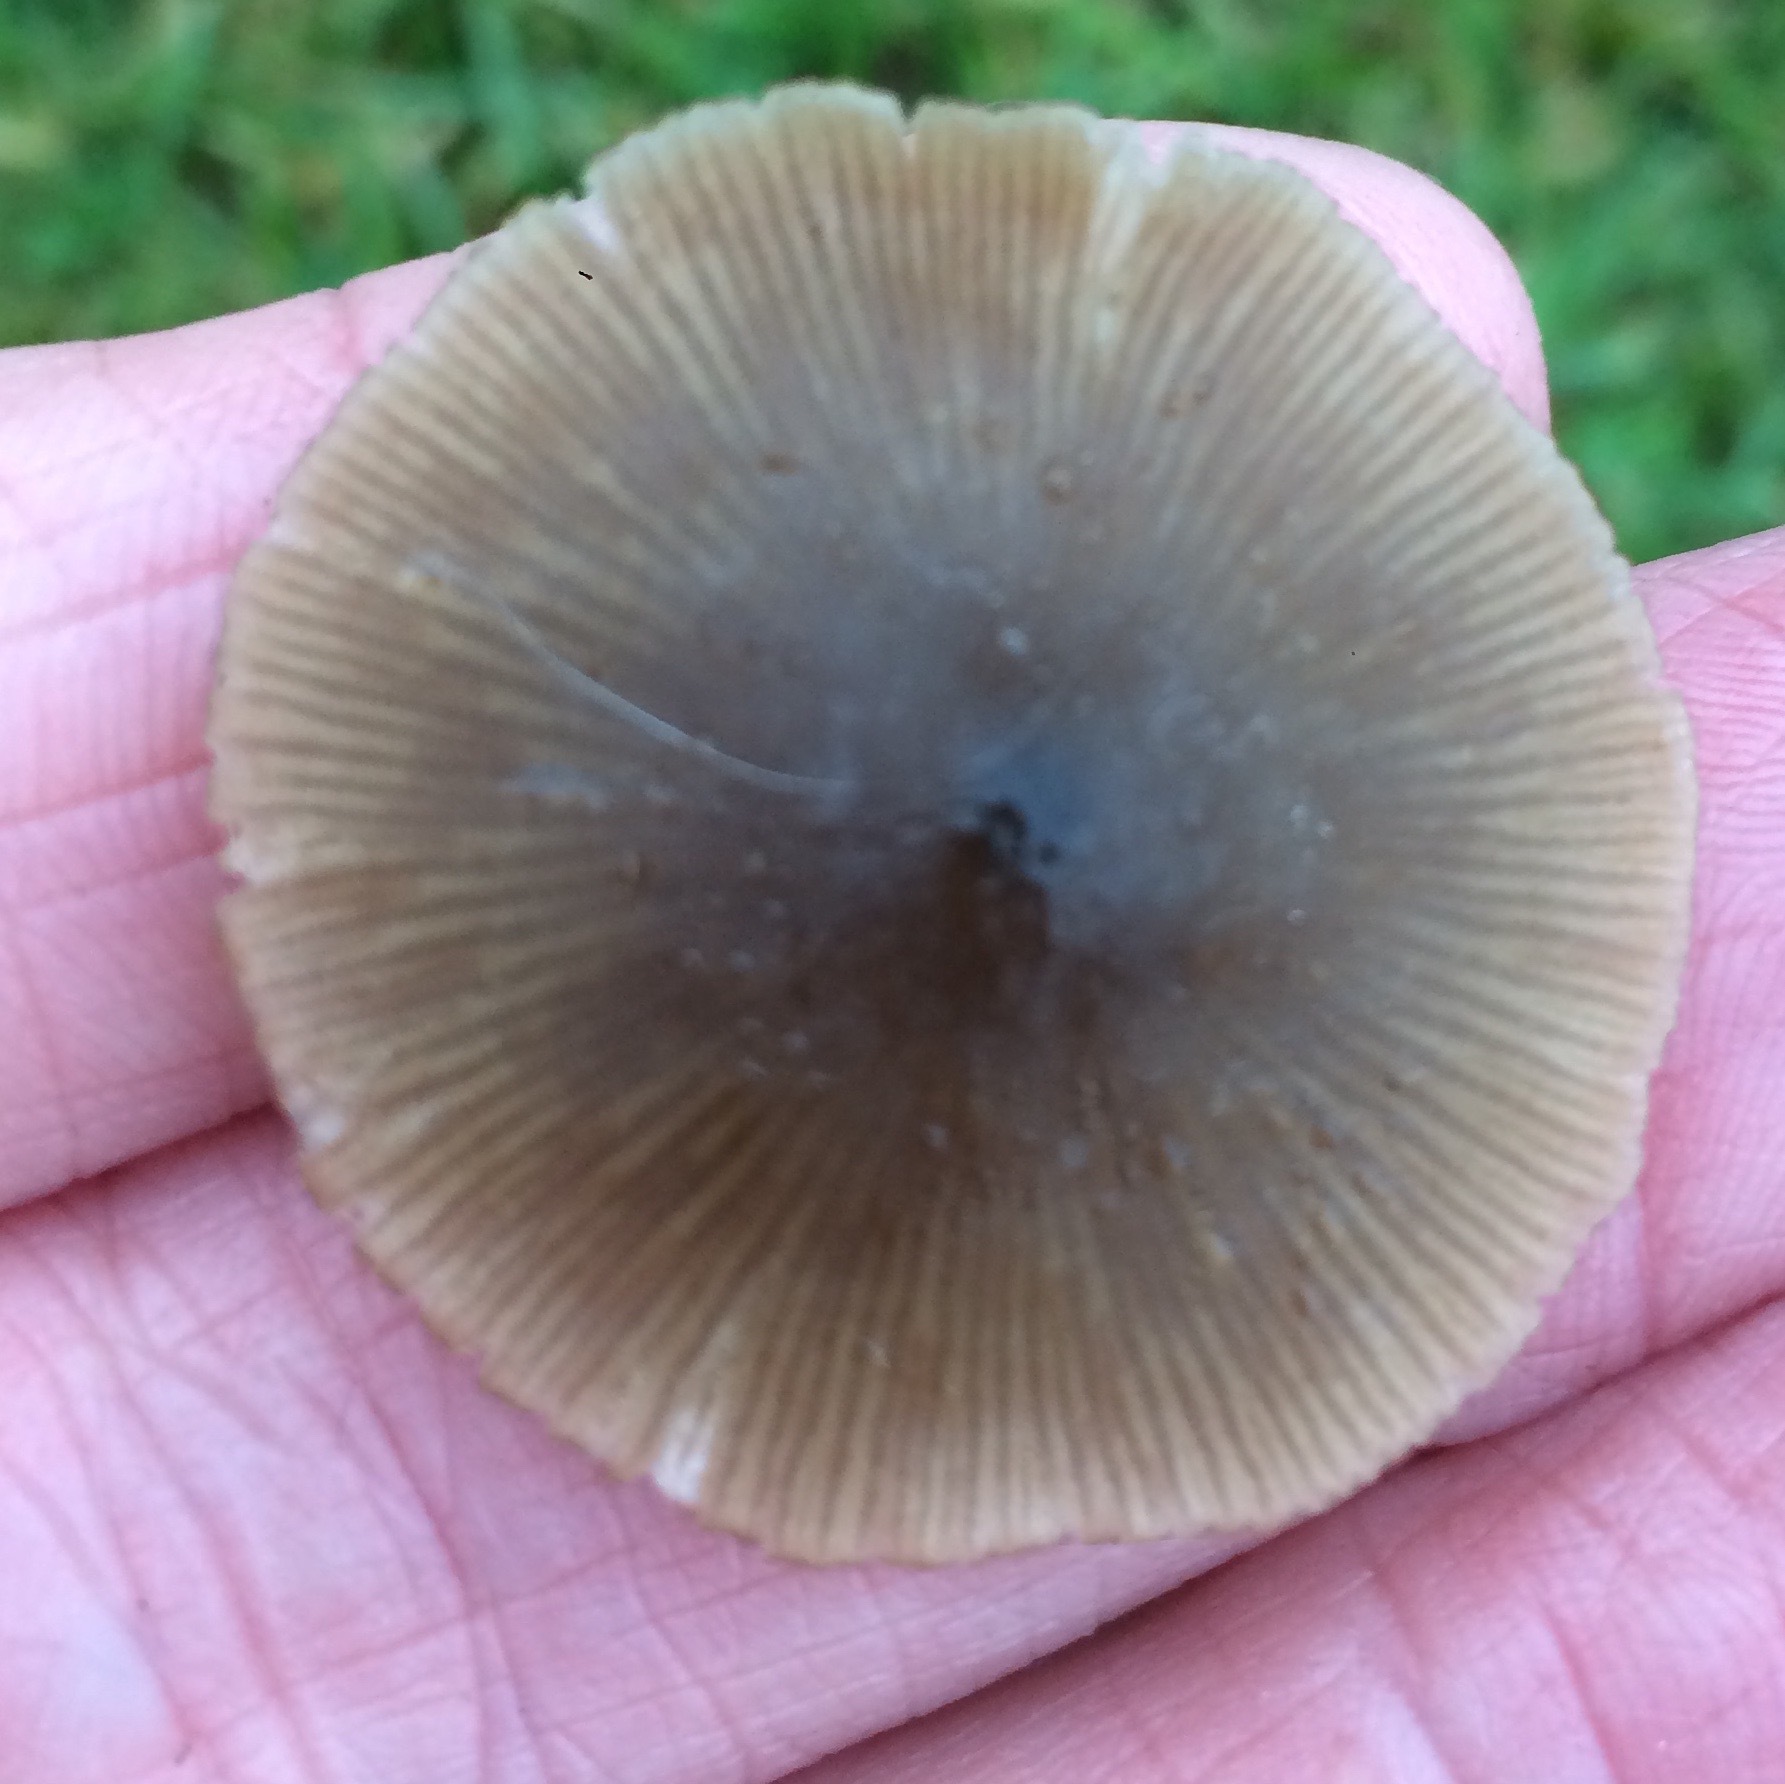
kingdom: Fungi
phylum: Basidiomycota
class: Agaricomycetes
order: Agaricales
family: Entolomataceae
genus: Entoloma
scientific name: Entoloma conferendum
